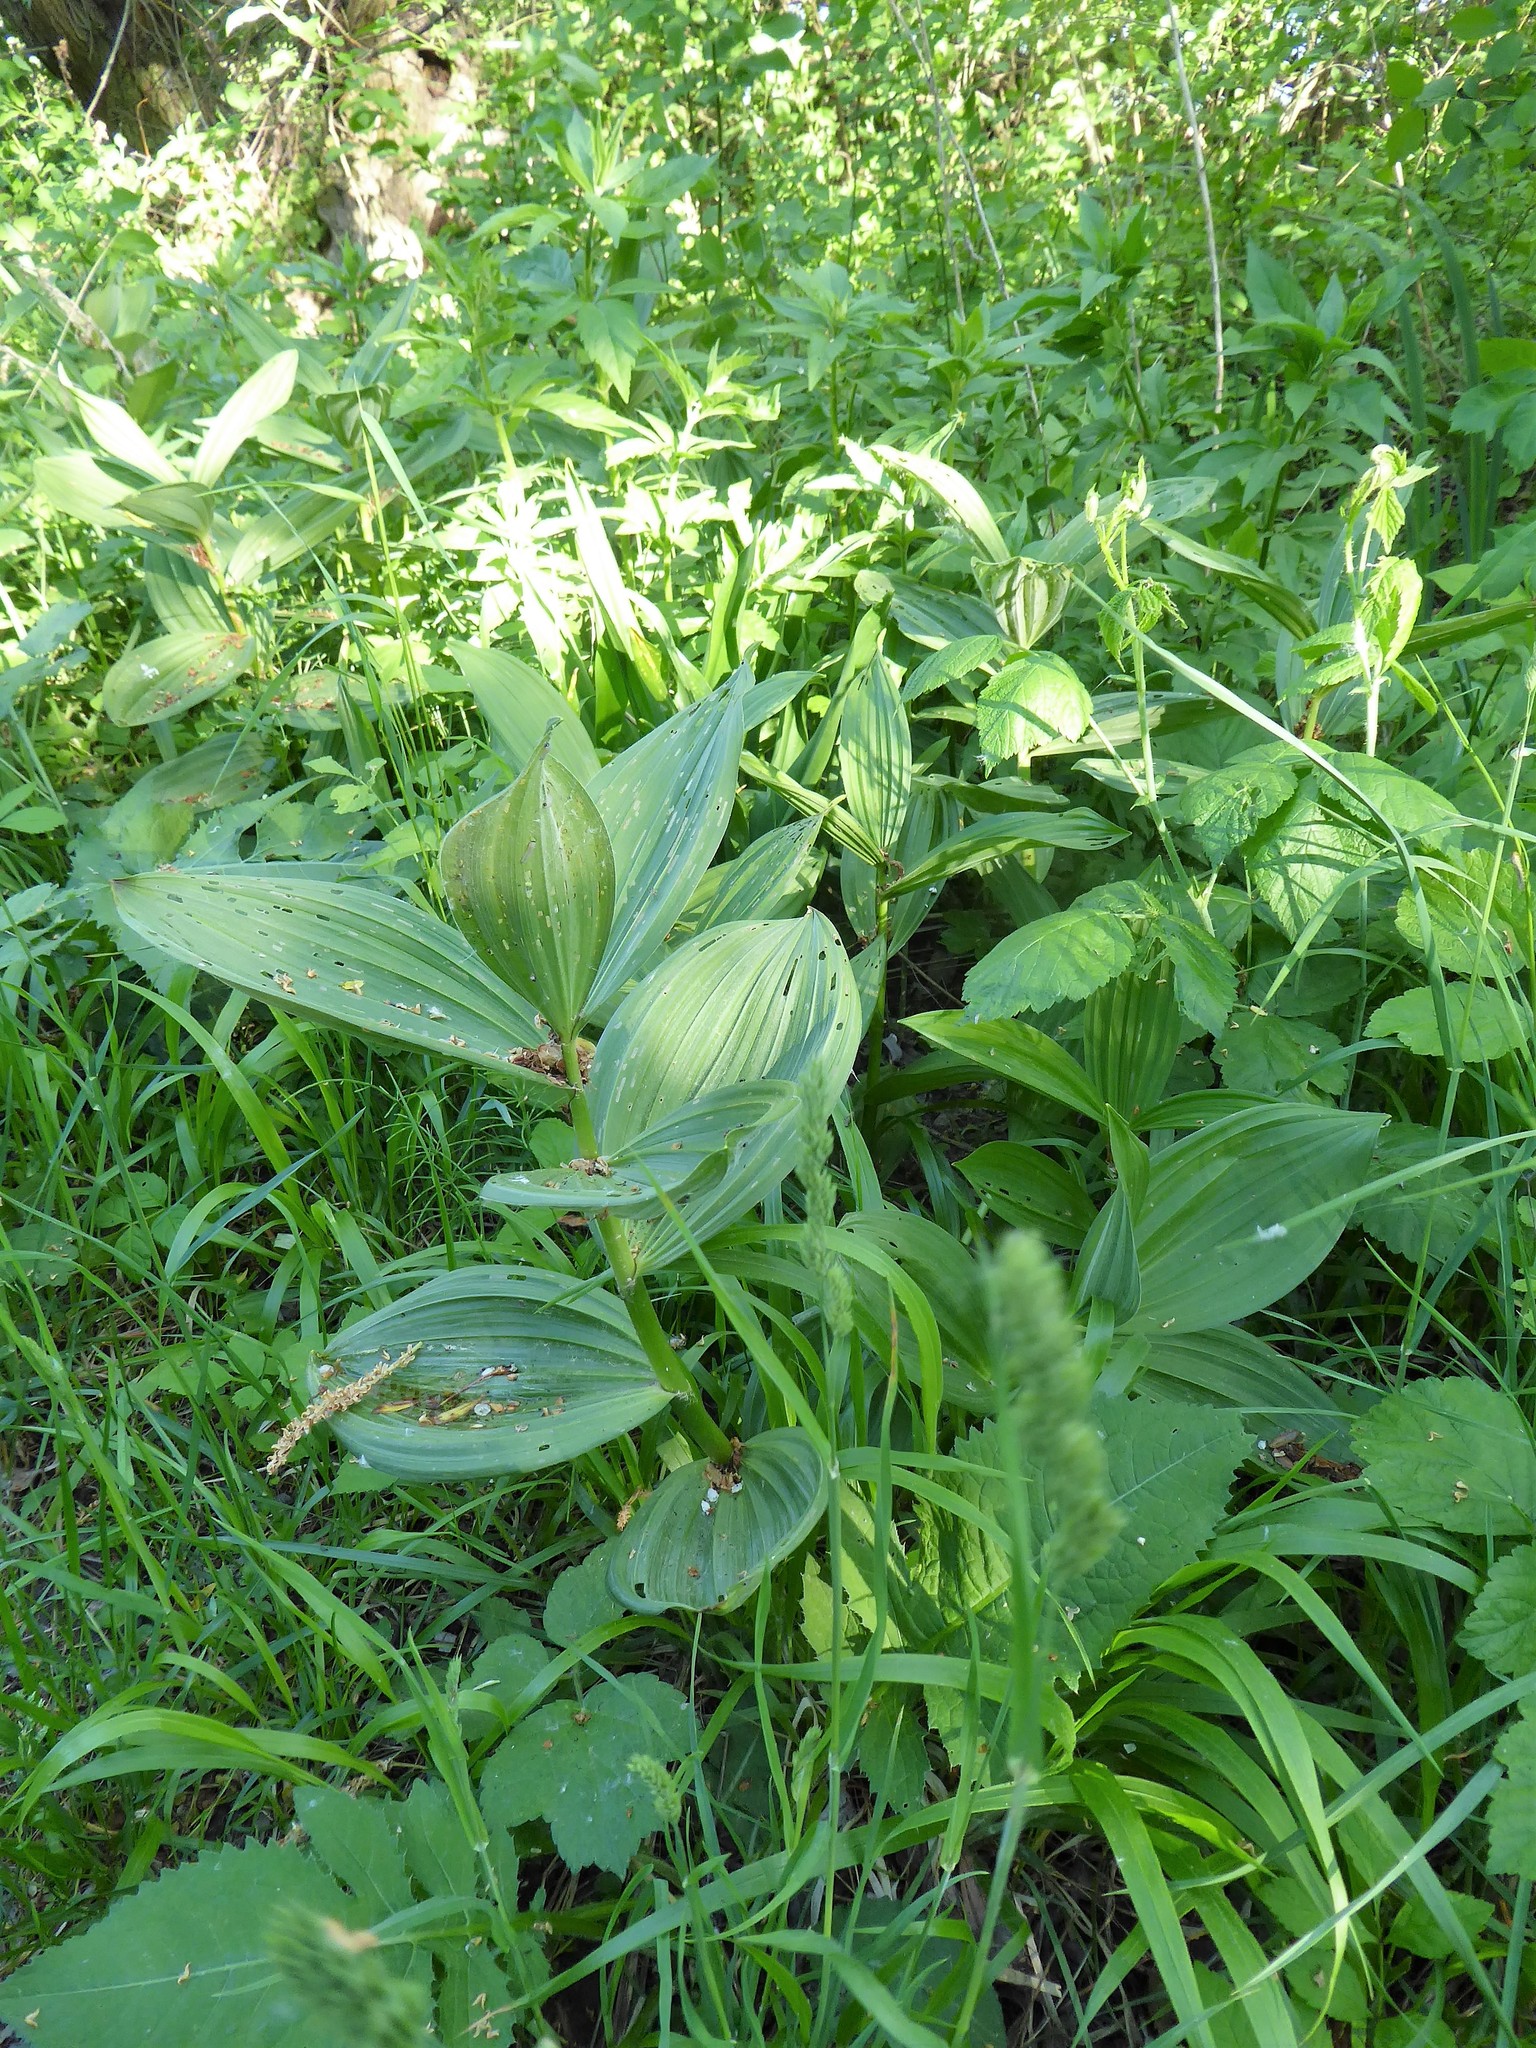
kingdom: Plantae
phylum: Tracheophyta
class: Liliopsida
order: Liliales
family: Melanthiaceae
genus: Veratrum
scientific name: Veratrum album
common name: White veratrum
